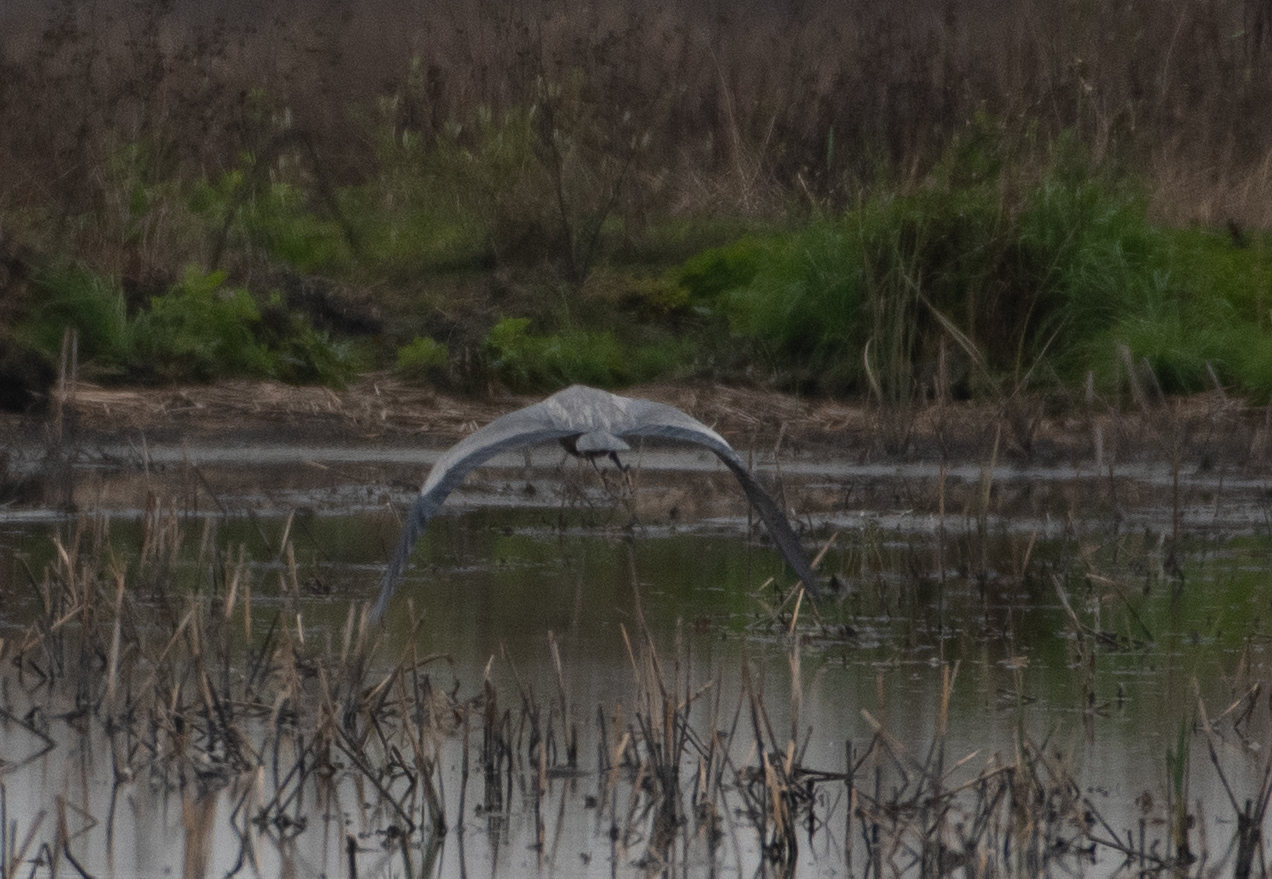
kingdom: Animalia
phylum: Chordata
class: Aves
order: Pelecaniformes
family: Ardeidae
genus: Ardea
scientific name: Ardea herodias
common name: Great blue heron
